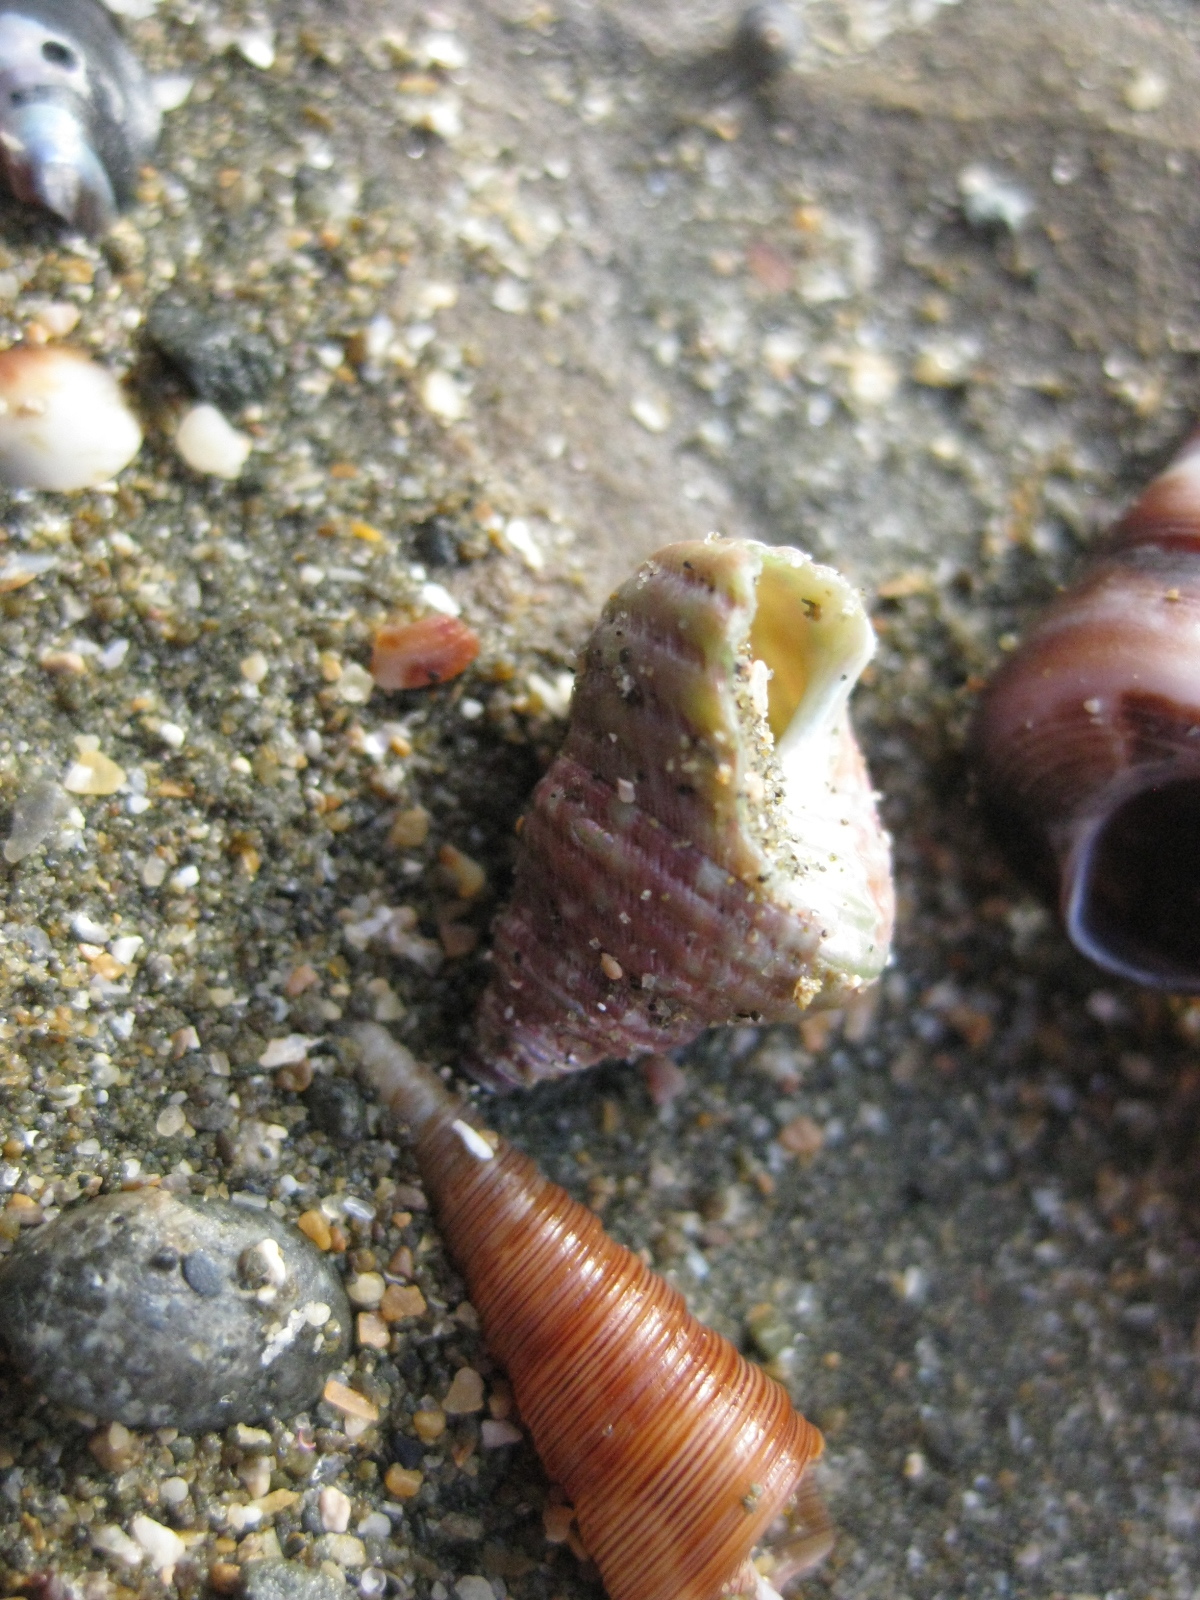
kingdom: Animalia
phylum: Mollusca
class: Gastropoda
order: Trochida
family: Trochidae
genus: Micrelenchus
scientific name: Micrelenchus purpureus
